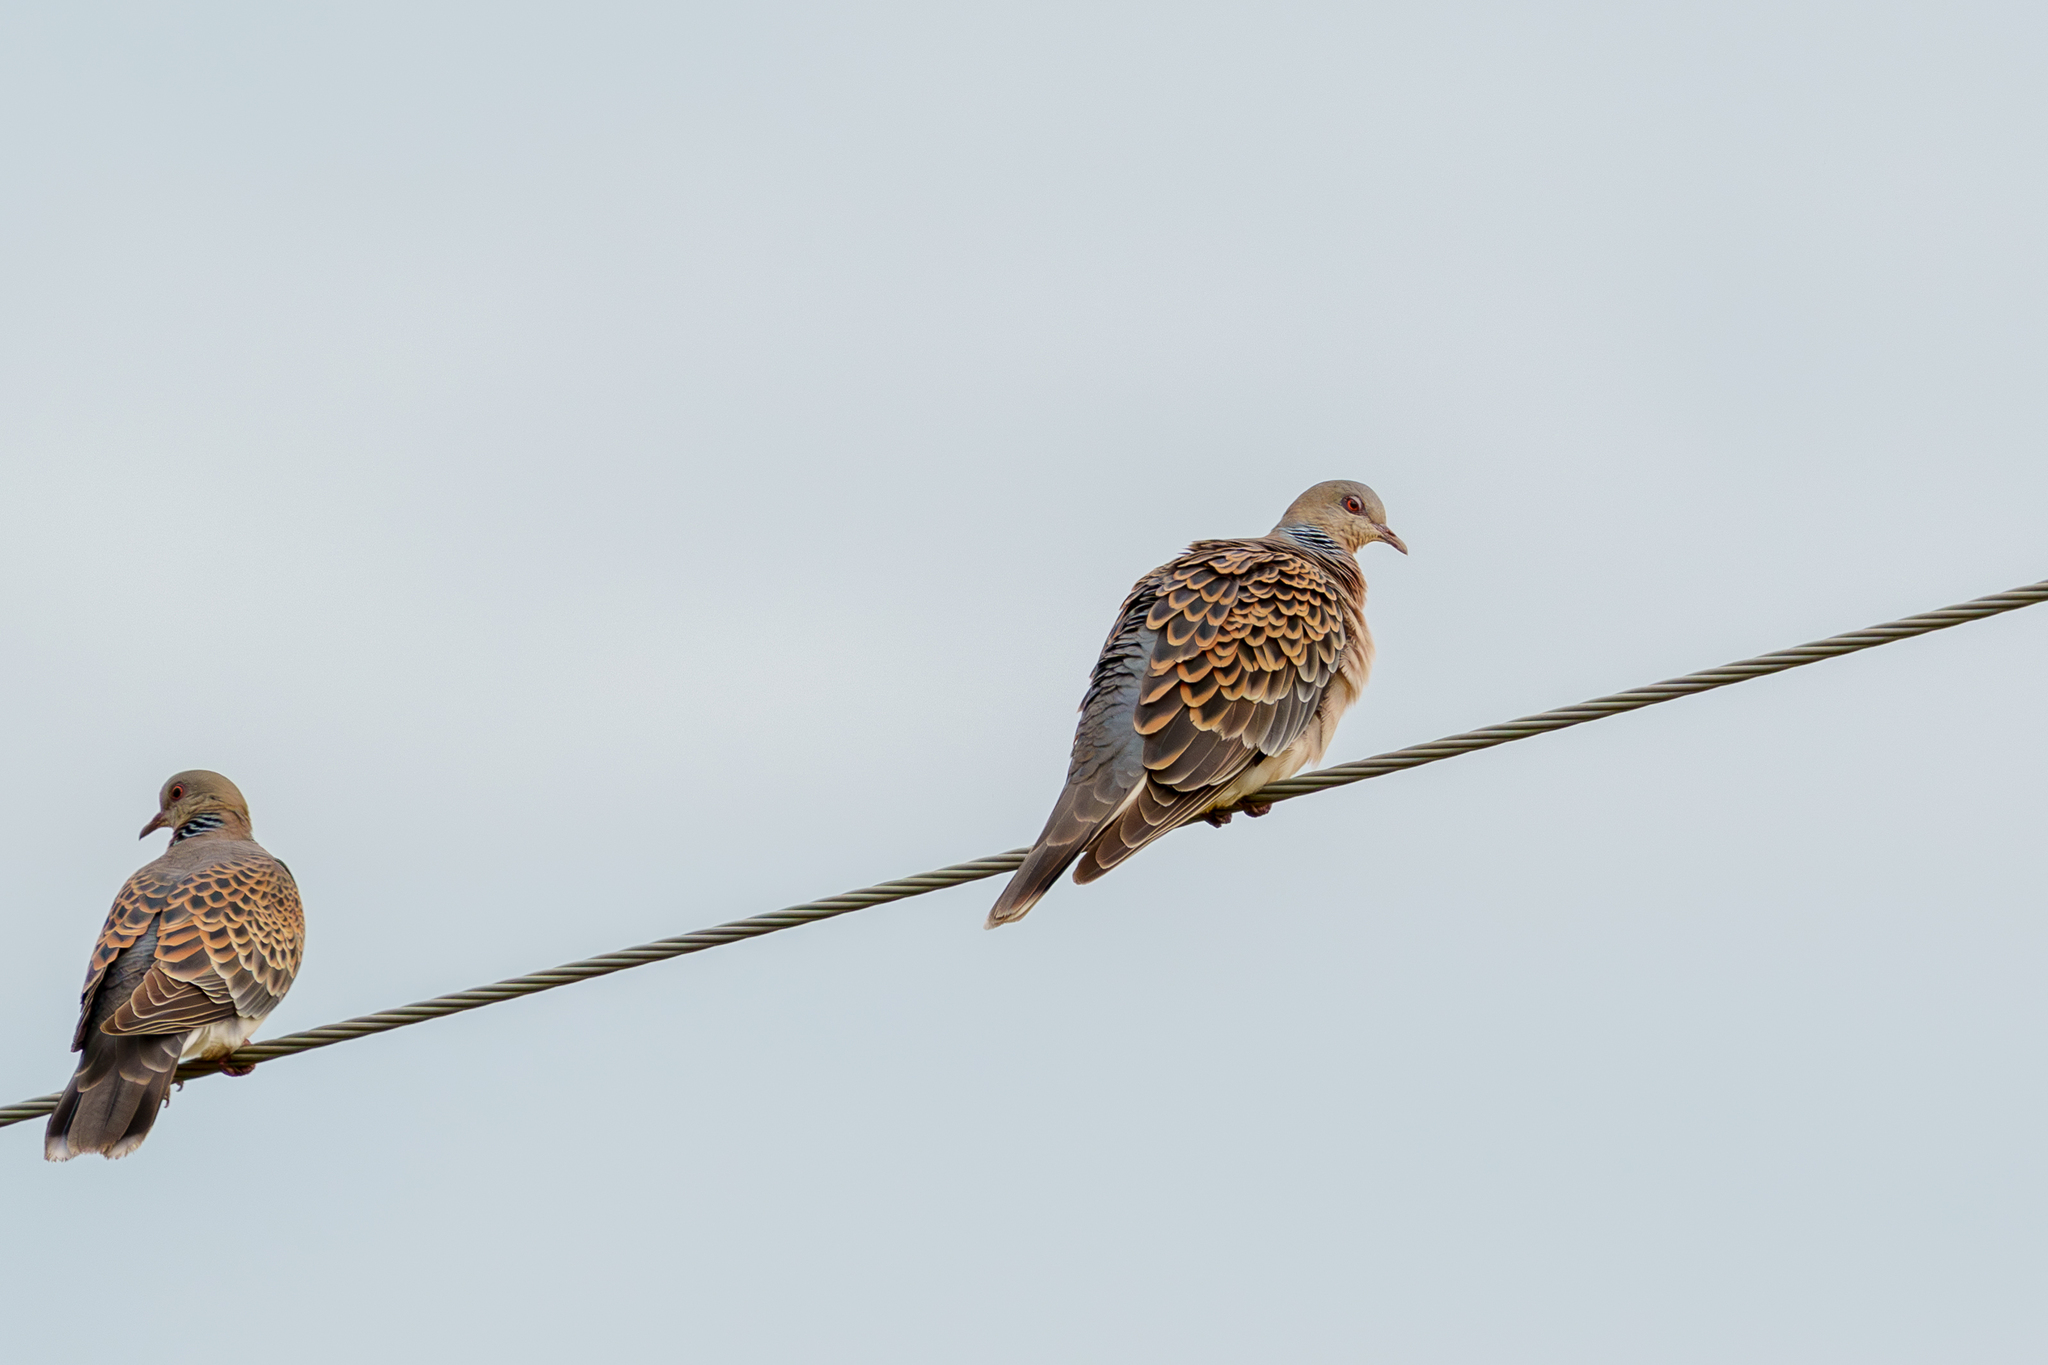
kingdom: Animalia
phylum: Chordata
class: Aves
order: Columbiformes
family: Columbidae
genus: Streptopelia
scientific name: Streptopelia orientalis
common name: Oriental turtle dove
